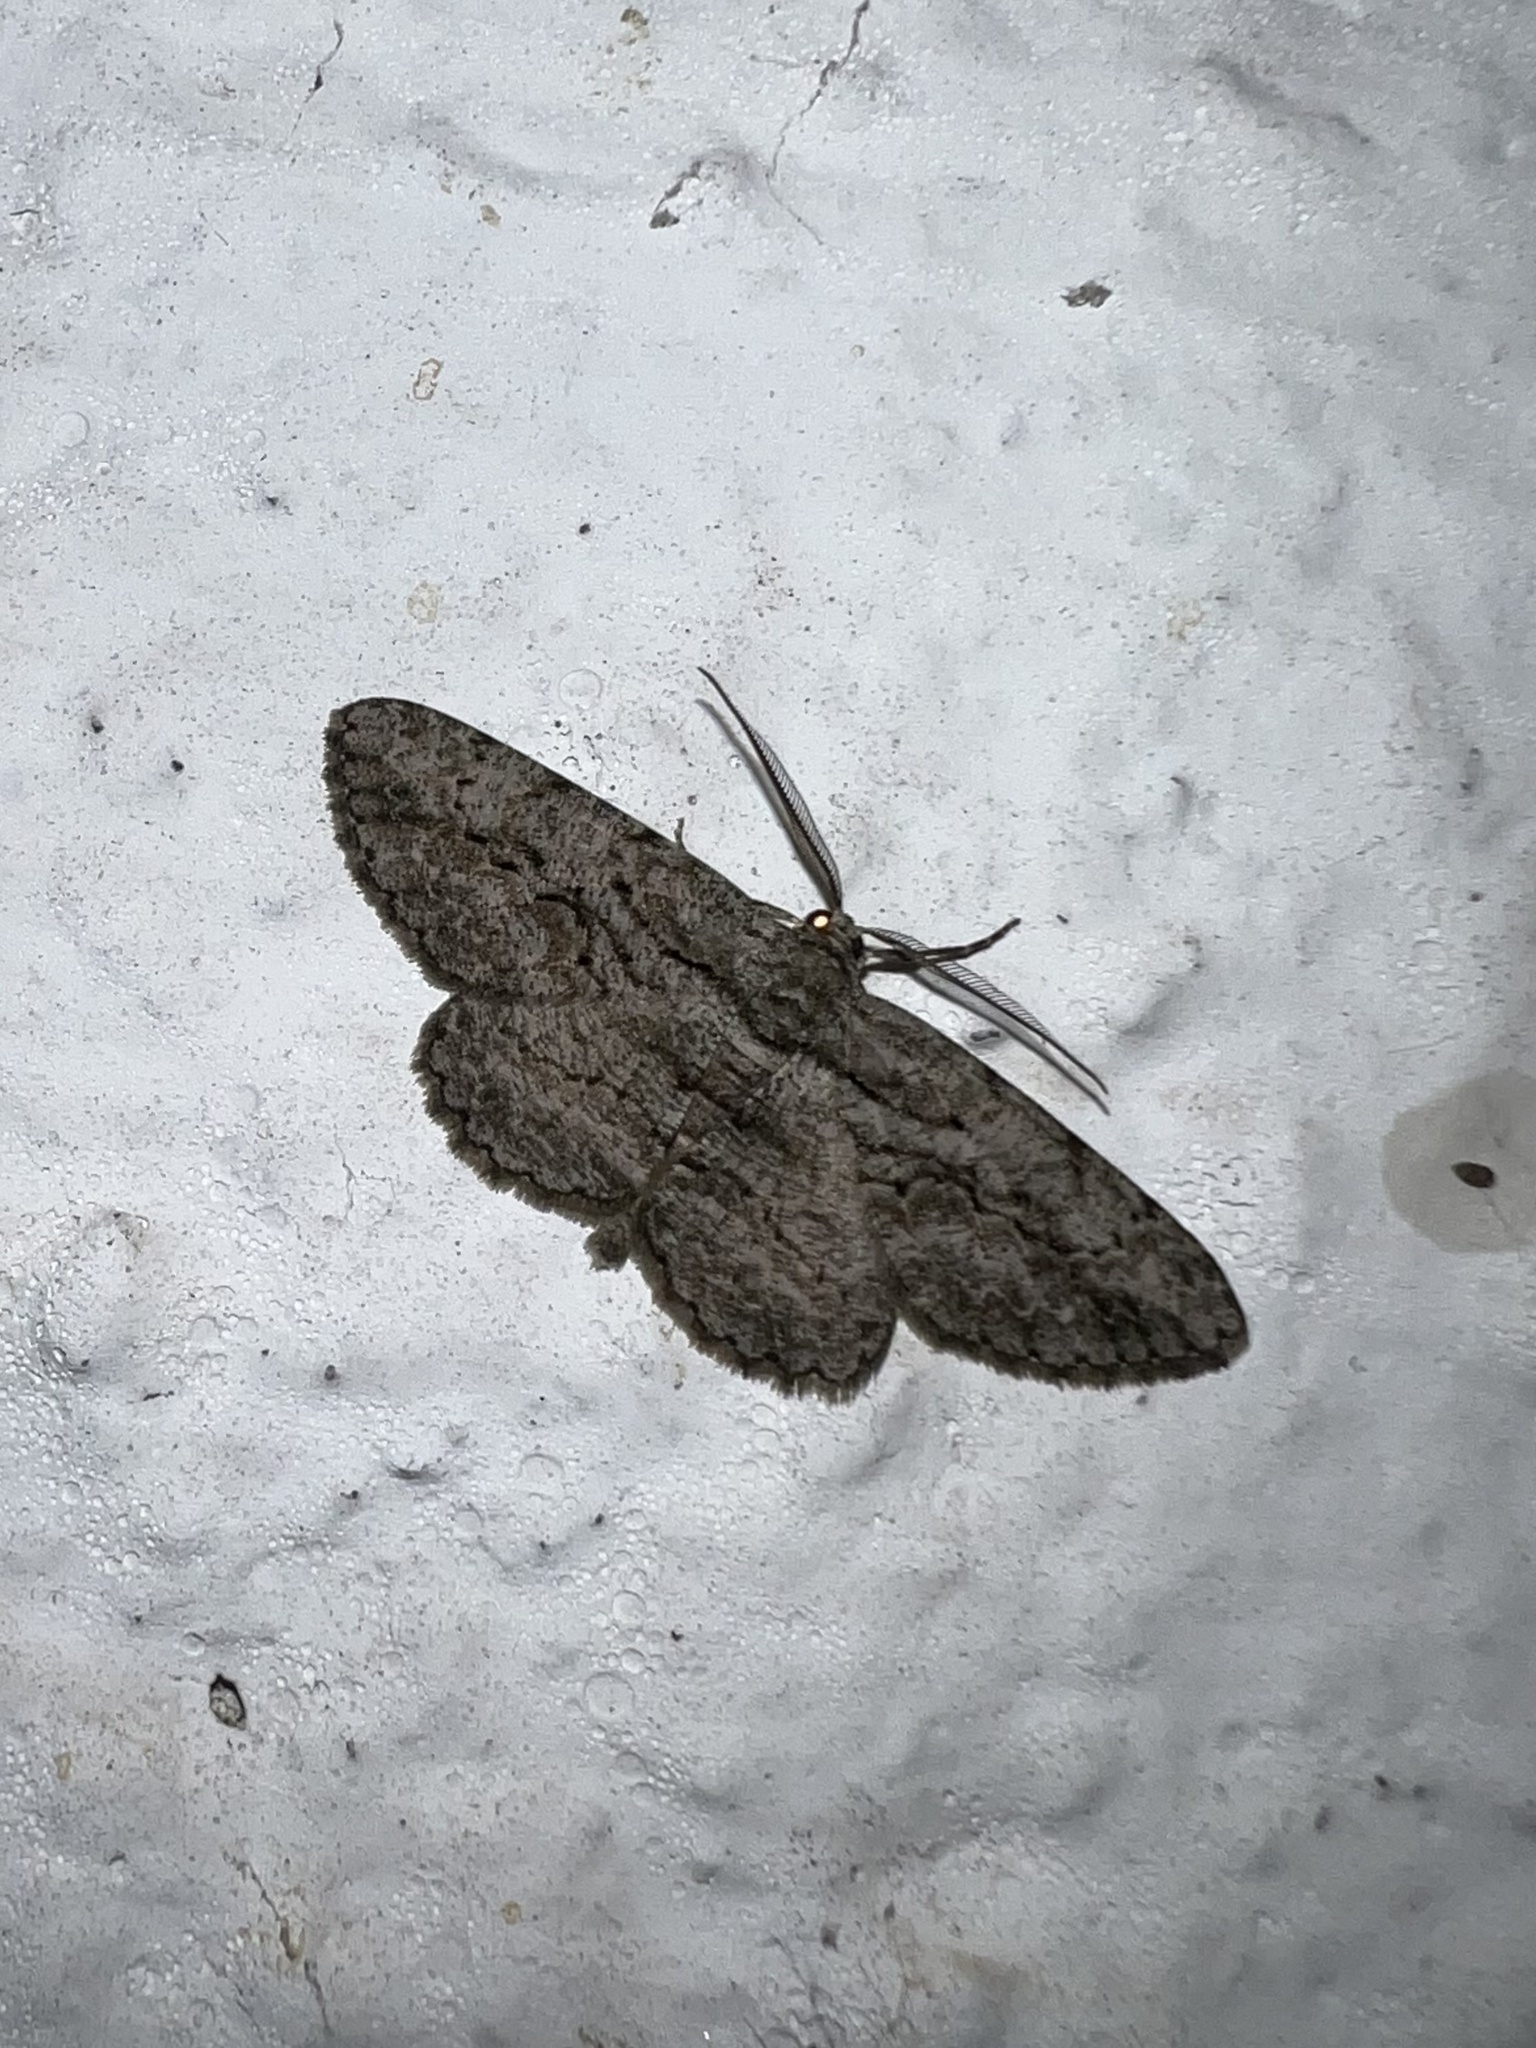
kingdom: Animalia
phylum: Arthropoda
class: Insecta
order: Lepidoptera
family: Geometridae
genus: Anavitrinella
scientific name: Anavitrinella pampinaria
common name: Common gray
